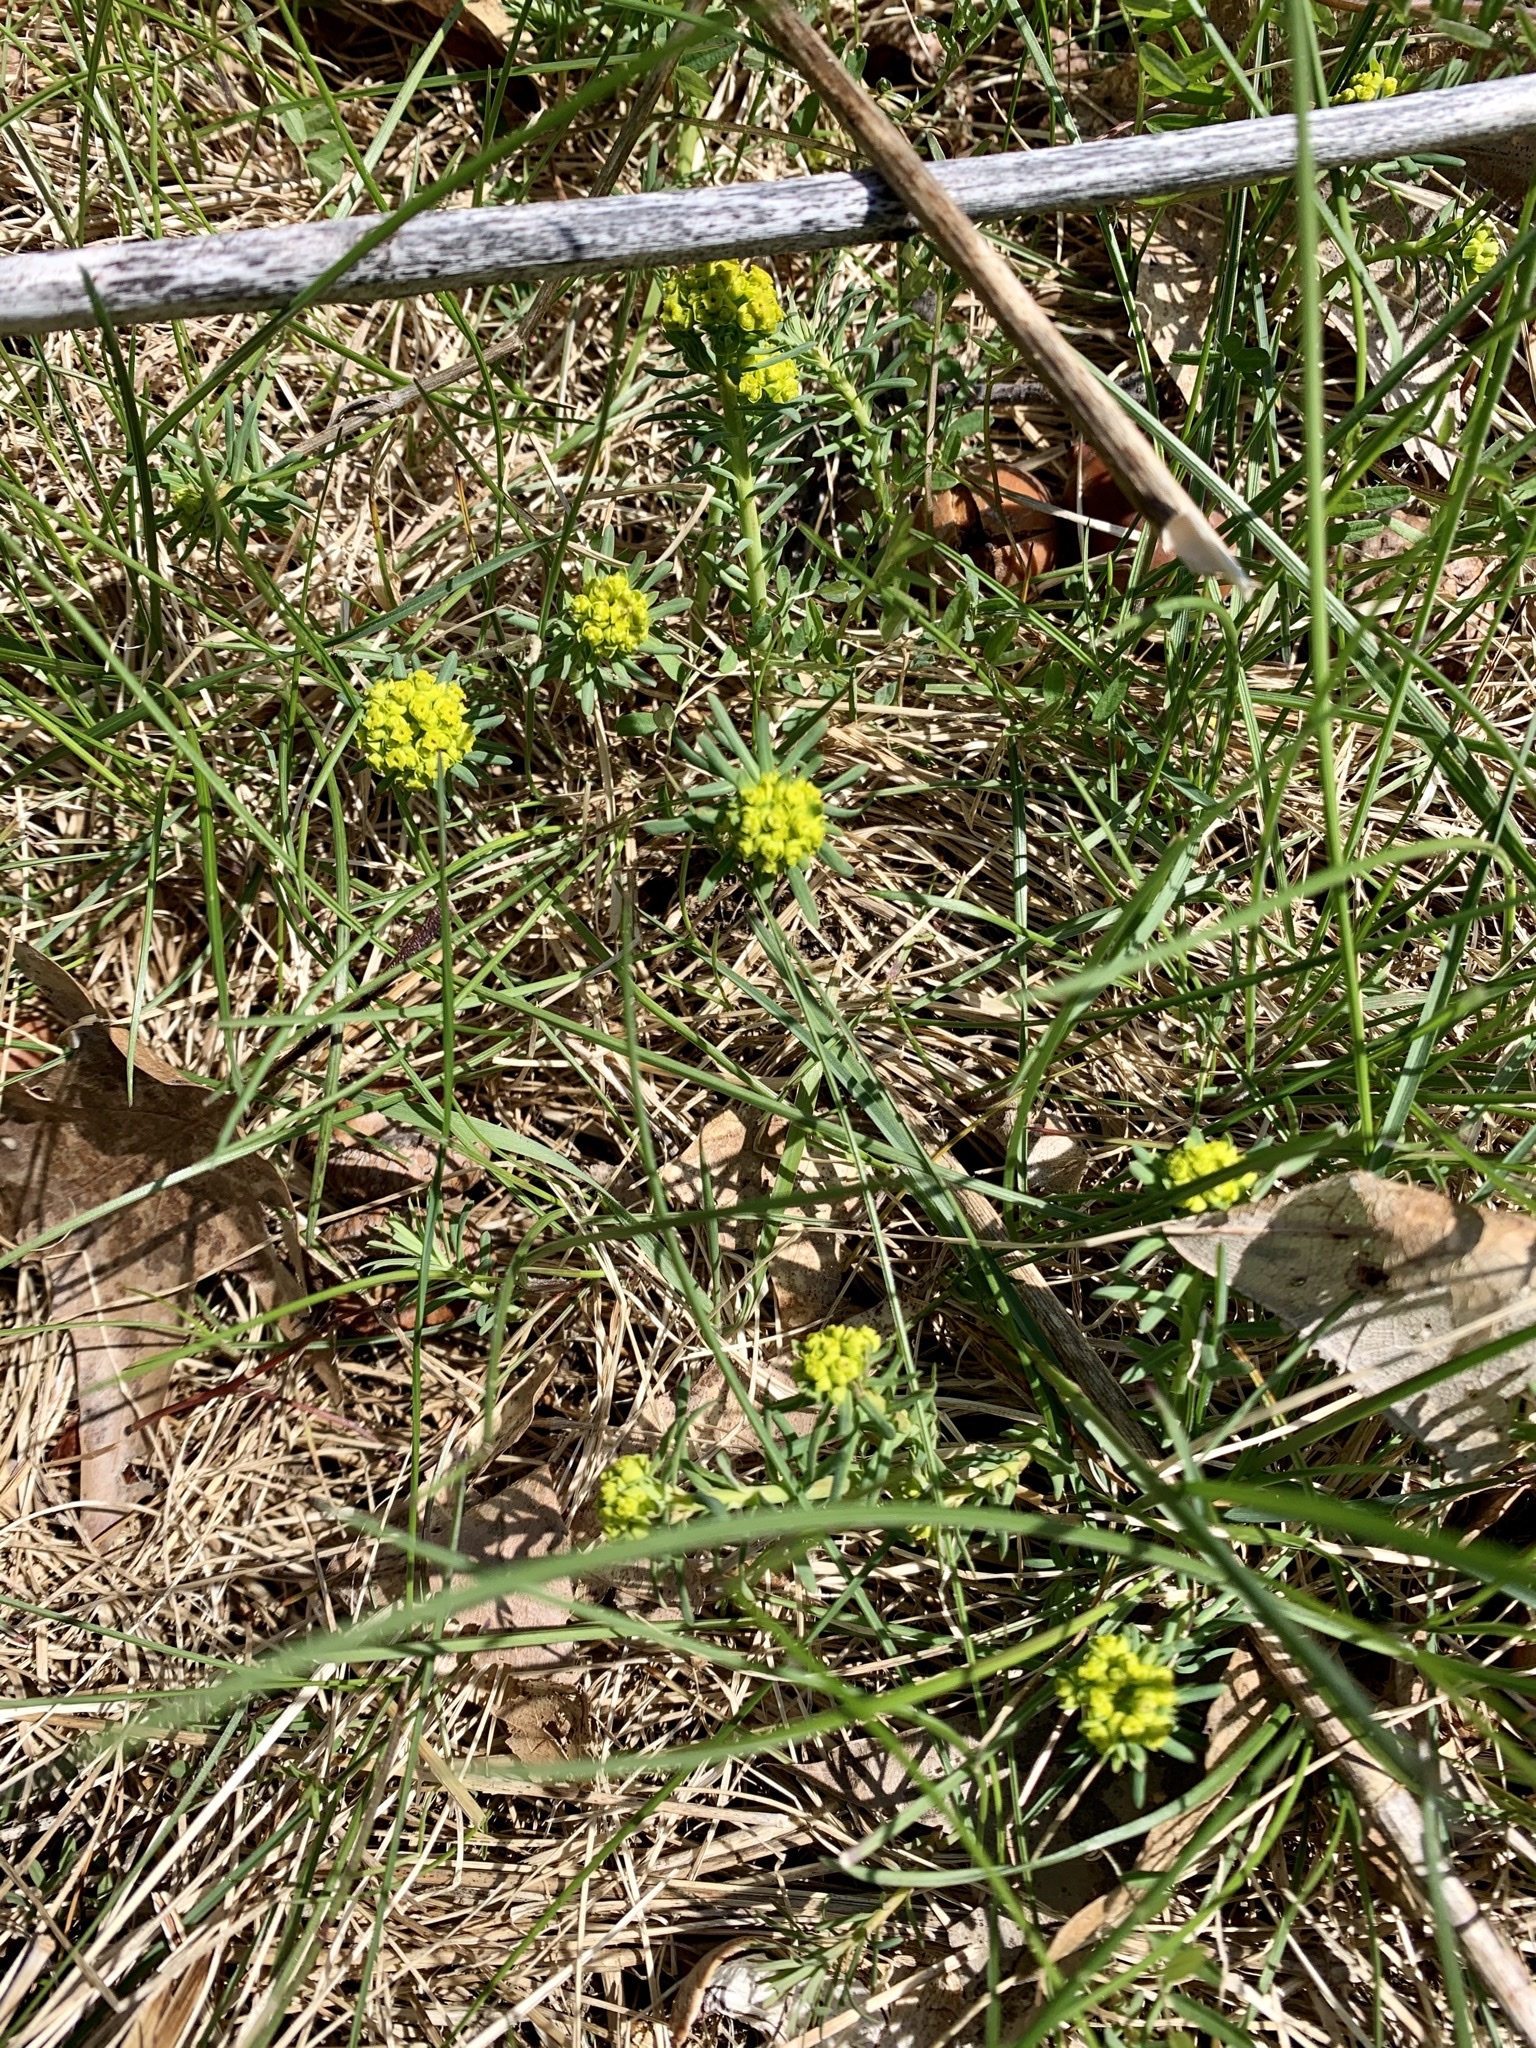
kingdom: Plantae
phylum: Tracheophyta
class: Magnoliopsida
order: Malpighiales
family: Euphorbiaceae
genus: Euphorbia
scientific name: Euphorbia cyparissias
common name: Cypress spurge
